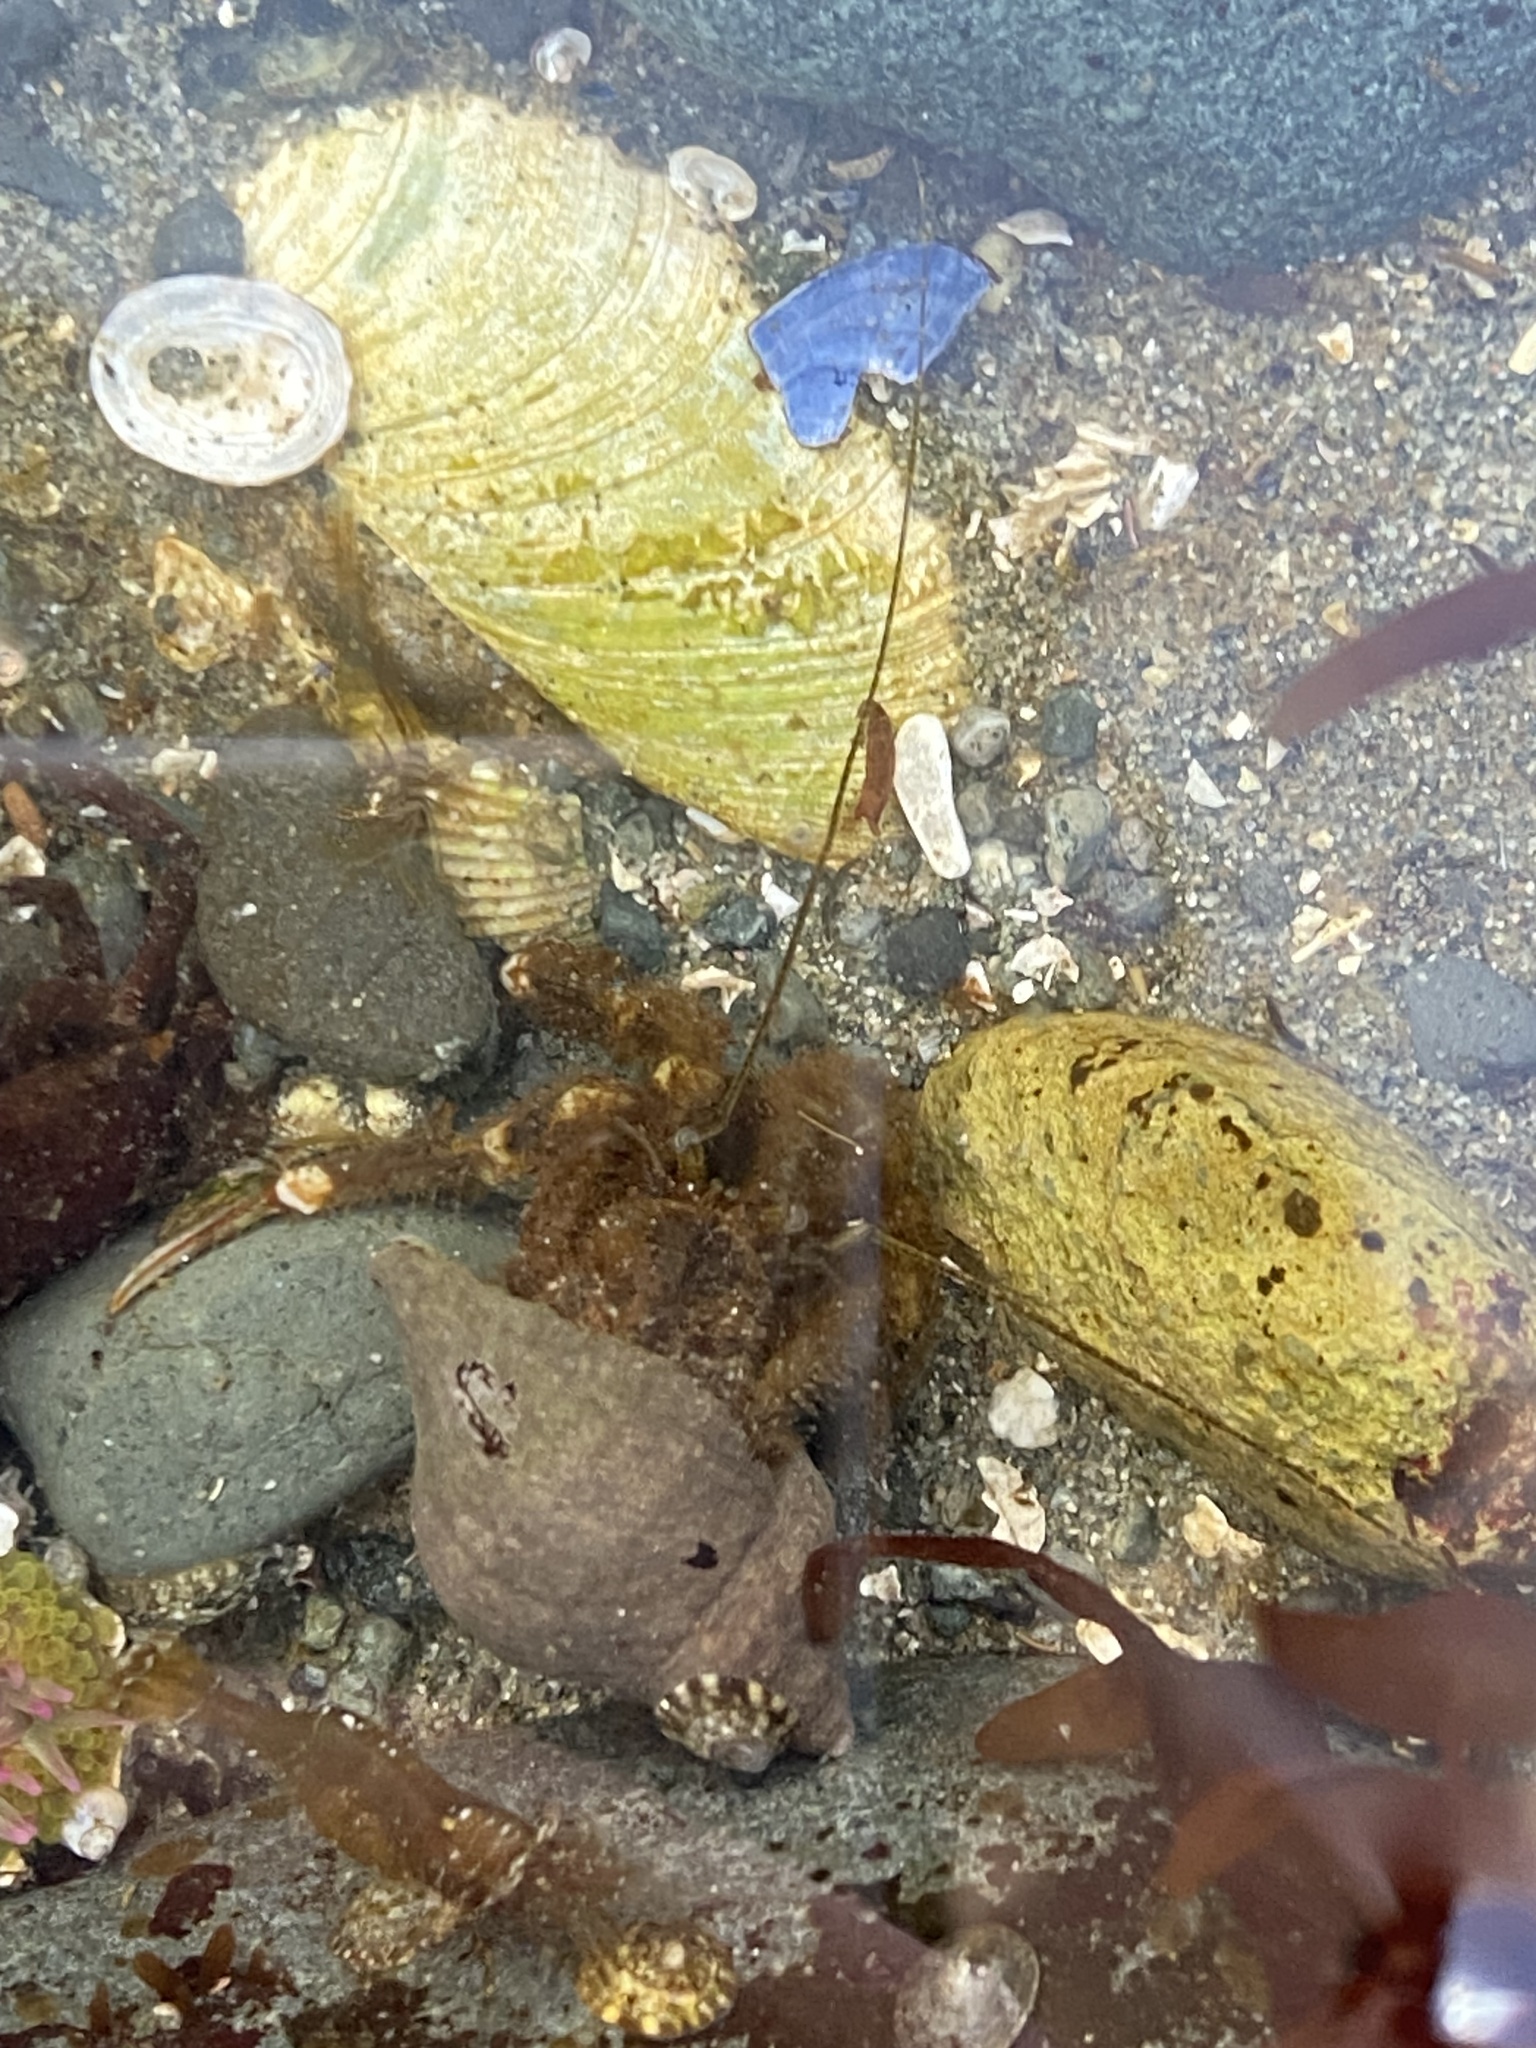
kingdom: Animalia
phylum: Arthropoda
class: Malacostraca
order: Decapoda
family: Paguridae
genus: Pagurus
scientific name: Pagurus hirsutiusculus
